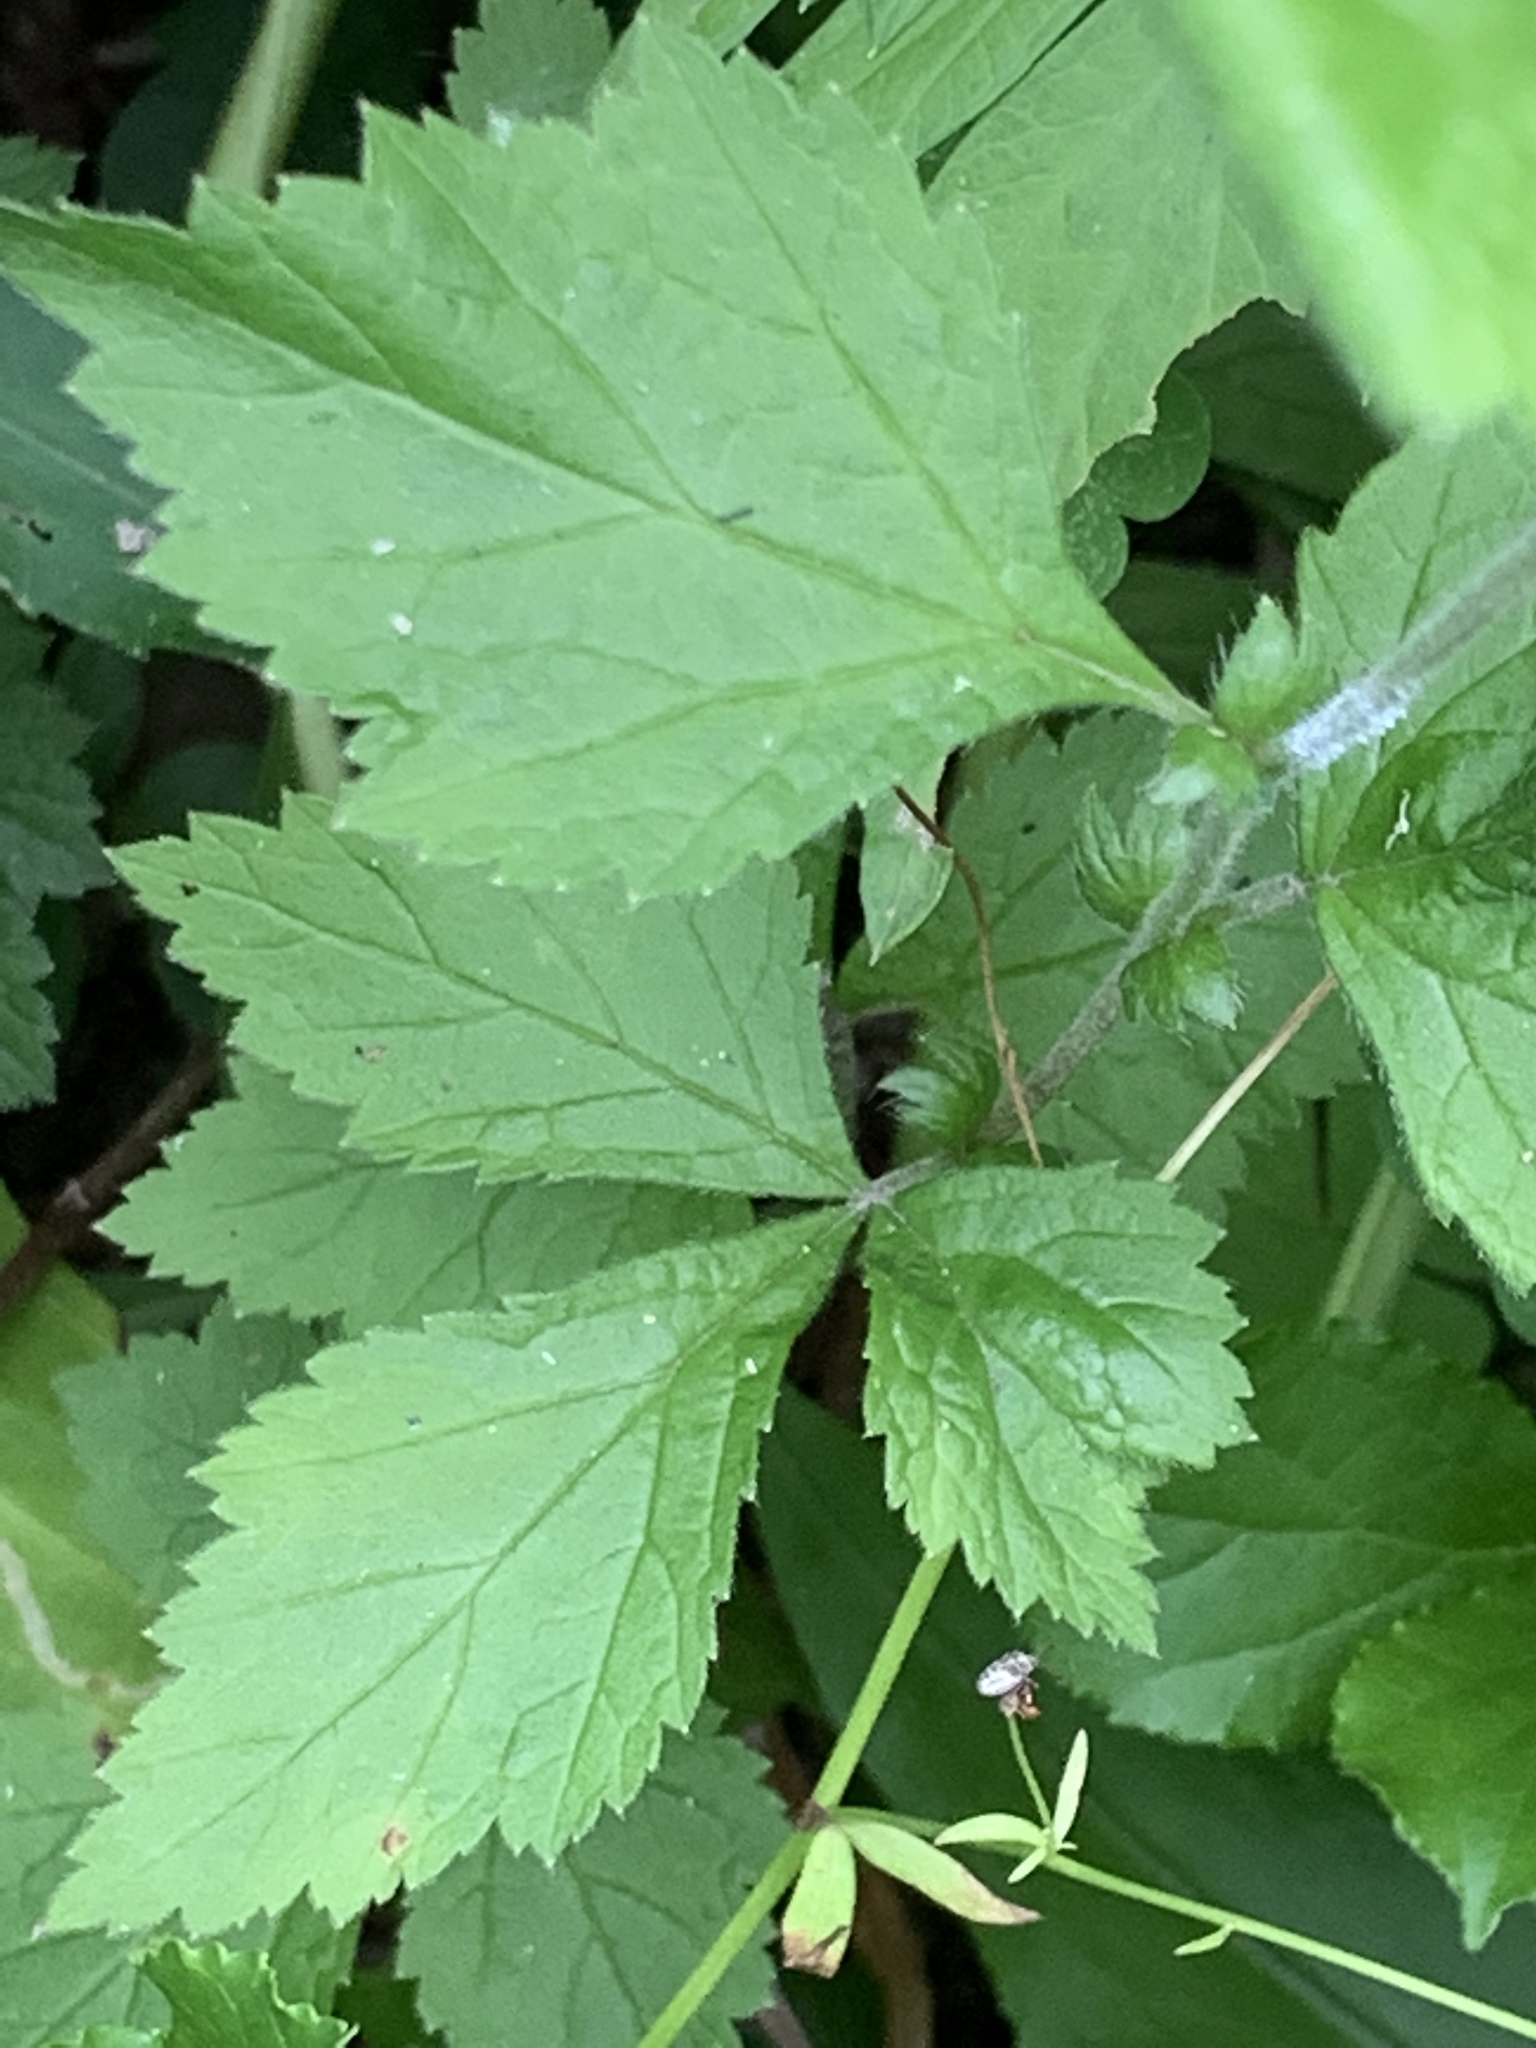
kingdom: Plantae
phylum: Tracheophyta
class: Magnoliopsida
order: Rosales
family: Rosaceae
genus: Geum
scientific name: Geum canadense
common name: White avens
